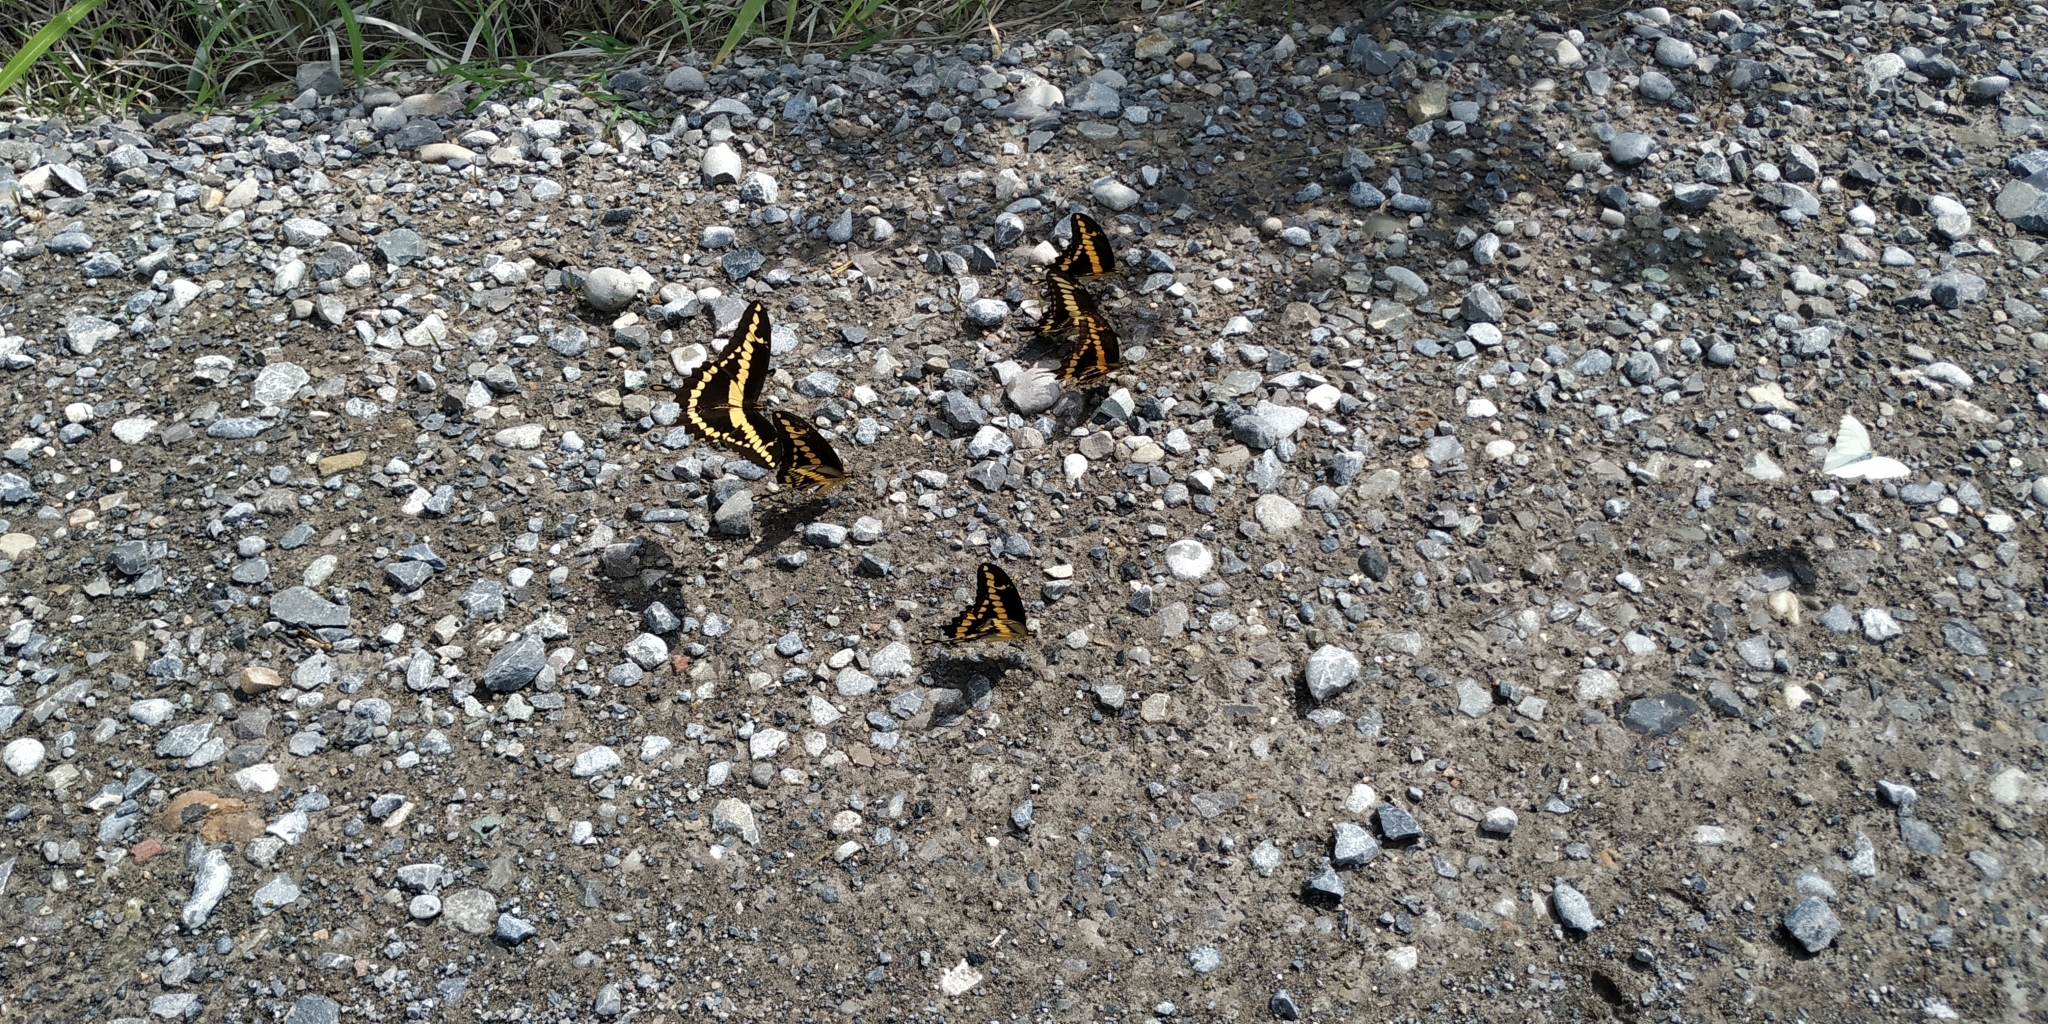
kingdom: Animalia
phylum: Arthropoda
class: Insecta
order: Lepidoptera
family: Papilionidae
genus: Papilio
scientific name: Papilio rumiko
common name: Western giant swallowtail
